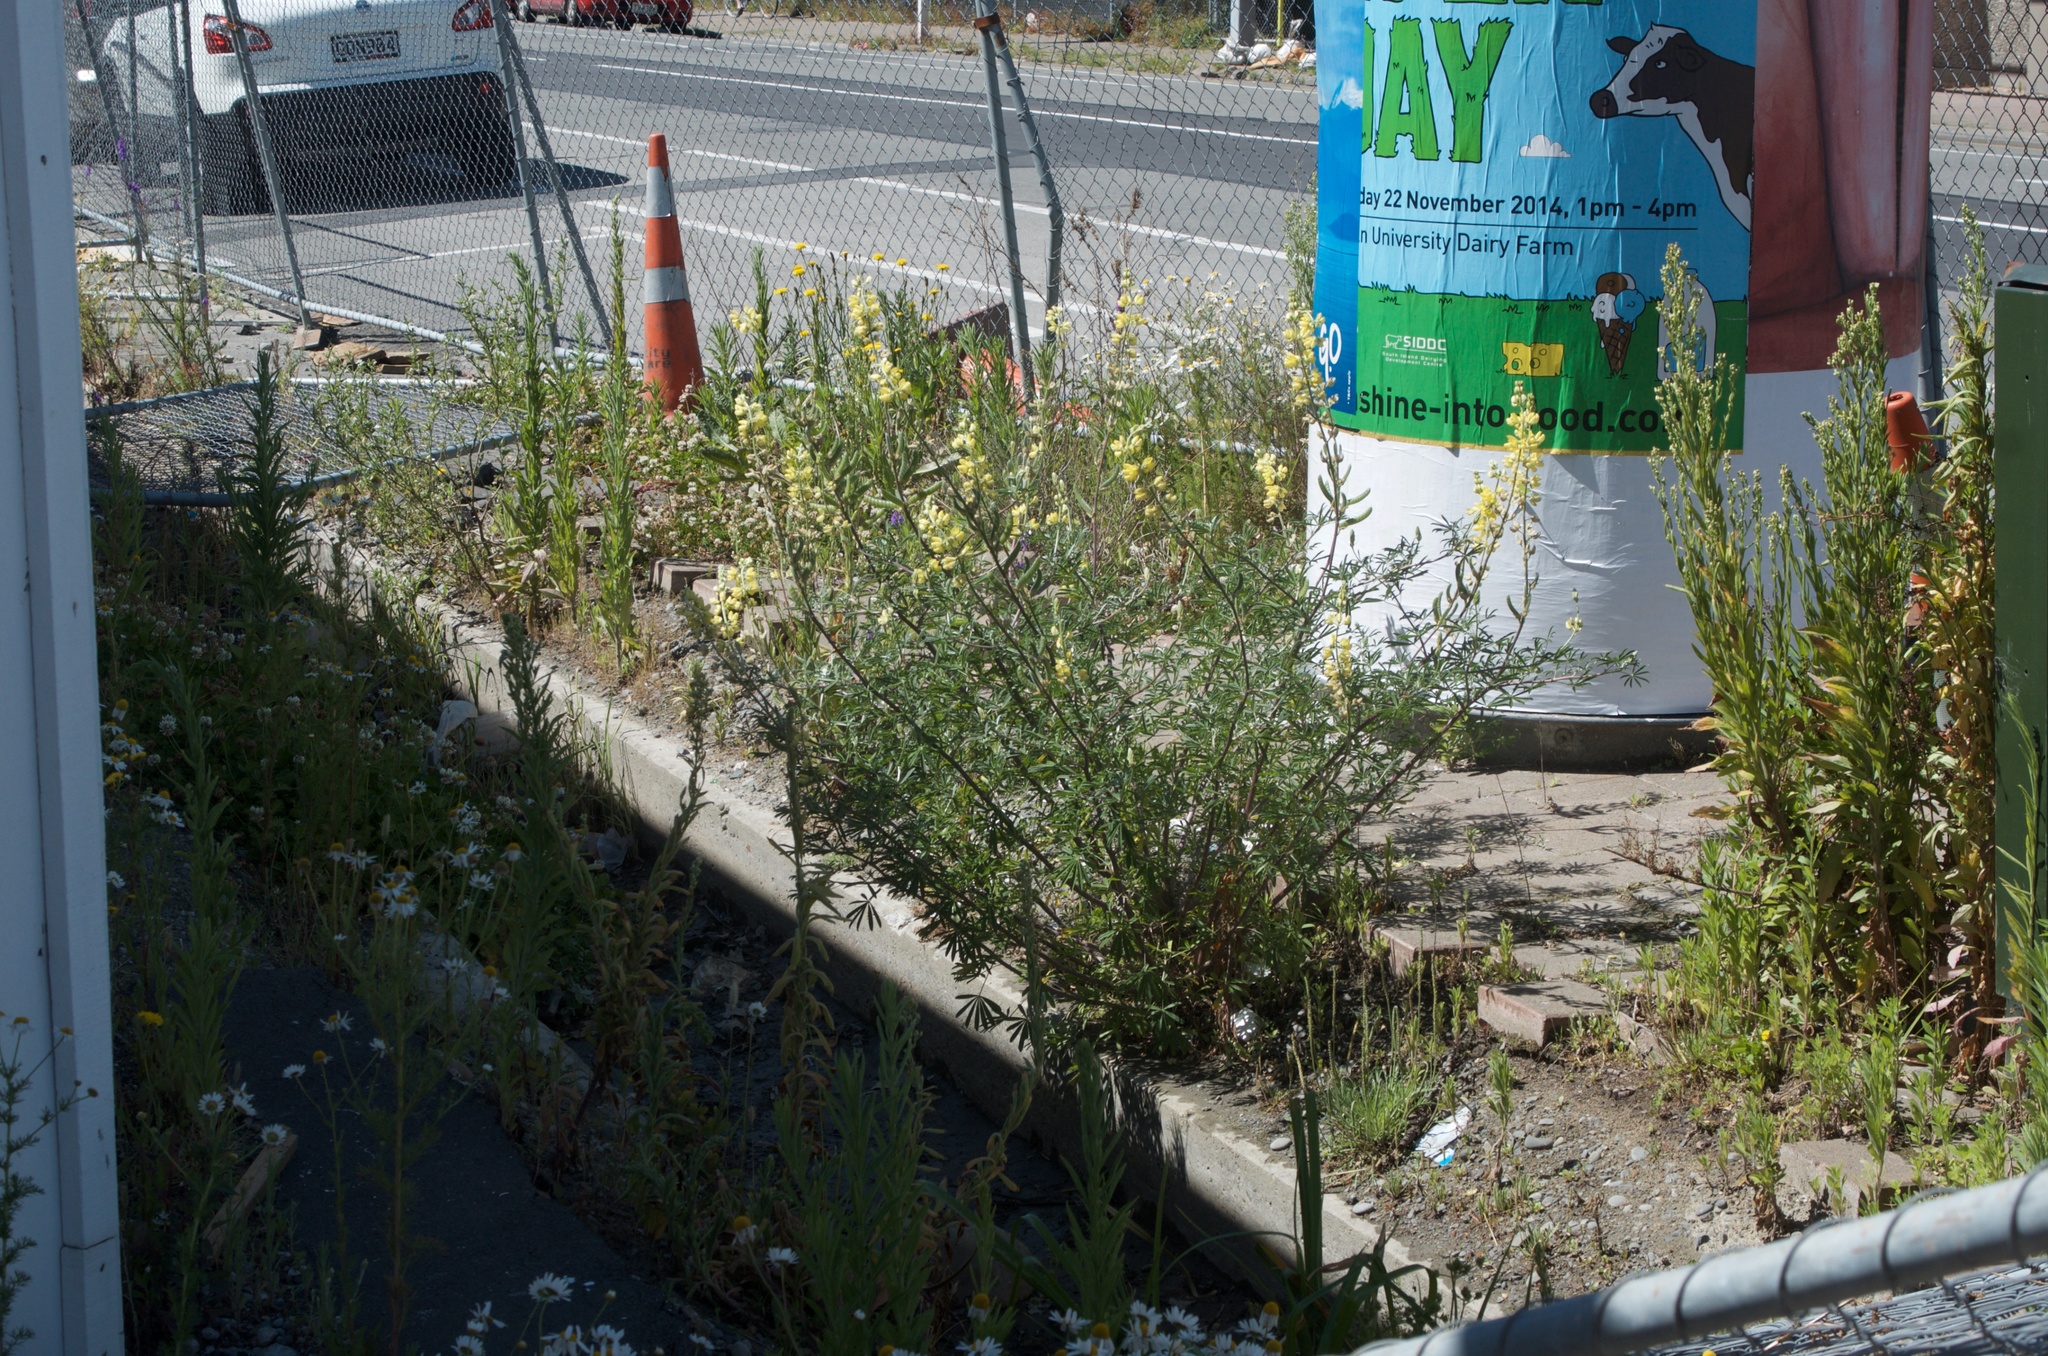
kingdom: Plantae
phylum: Tracheophyta
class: Magnoliopsida
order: Fabales
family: Fabaceae
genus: Lupinus
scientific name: Lupinus arboreus
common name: Yellow bush lupine
